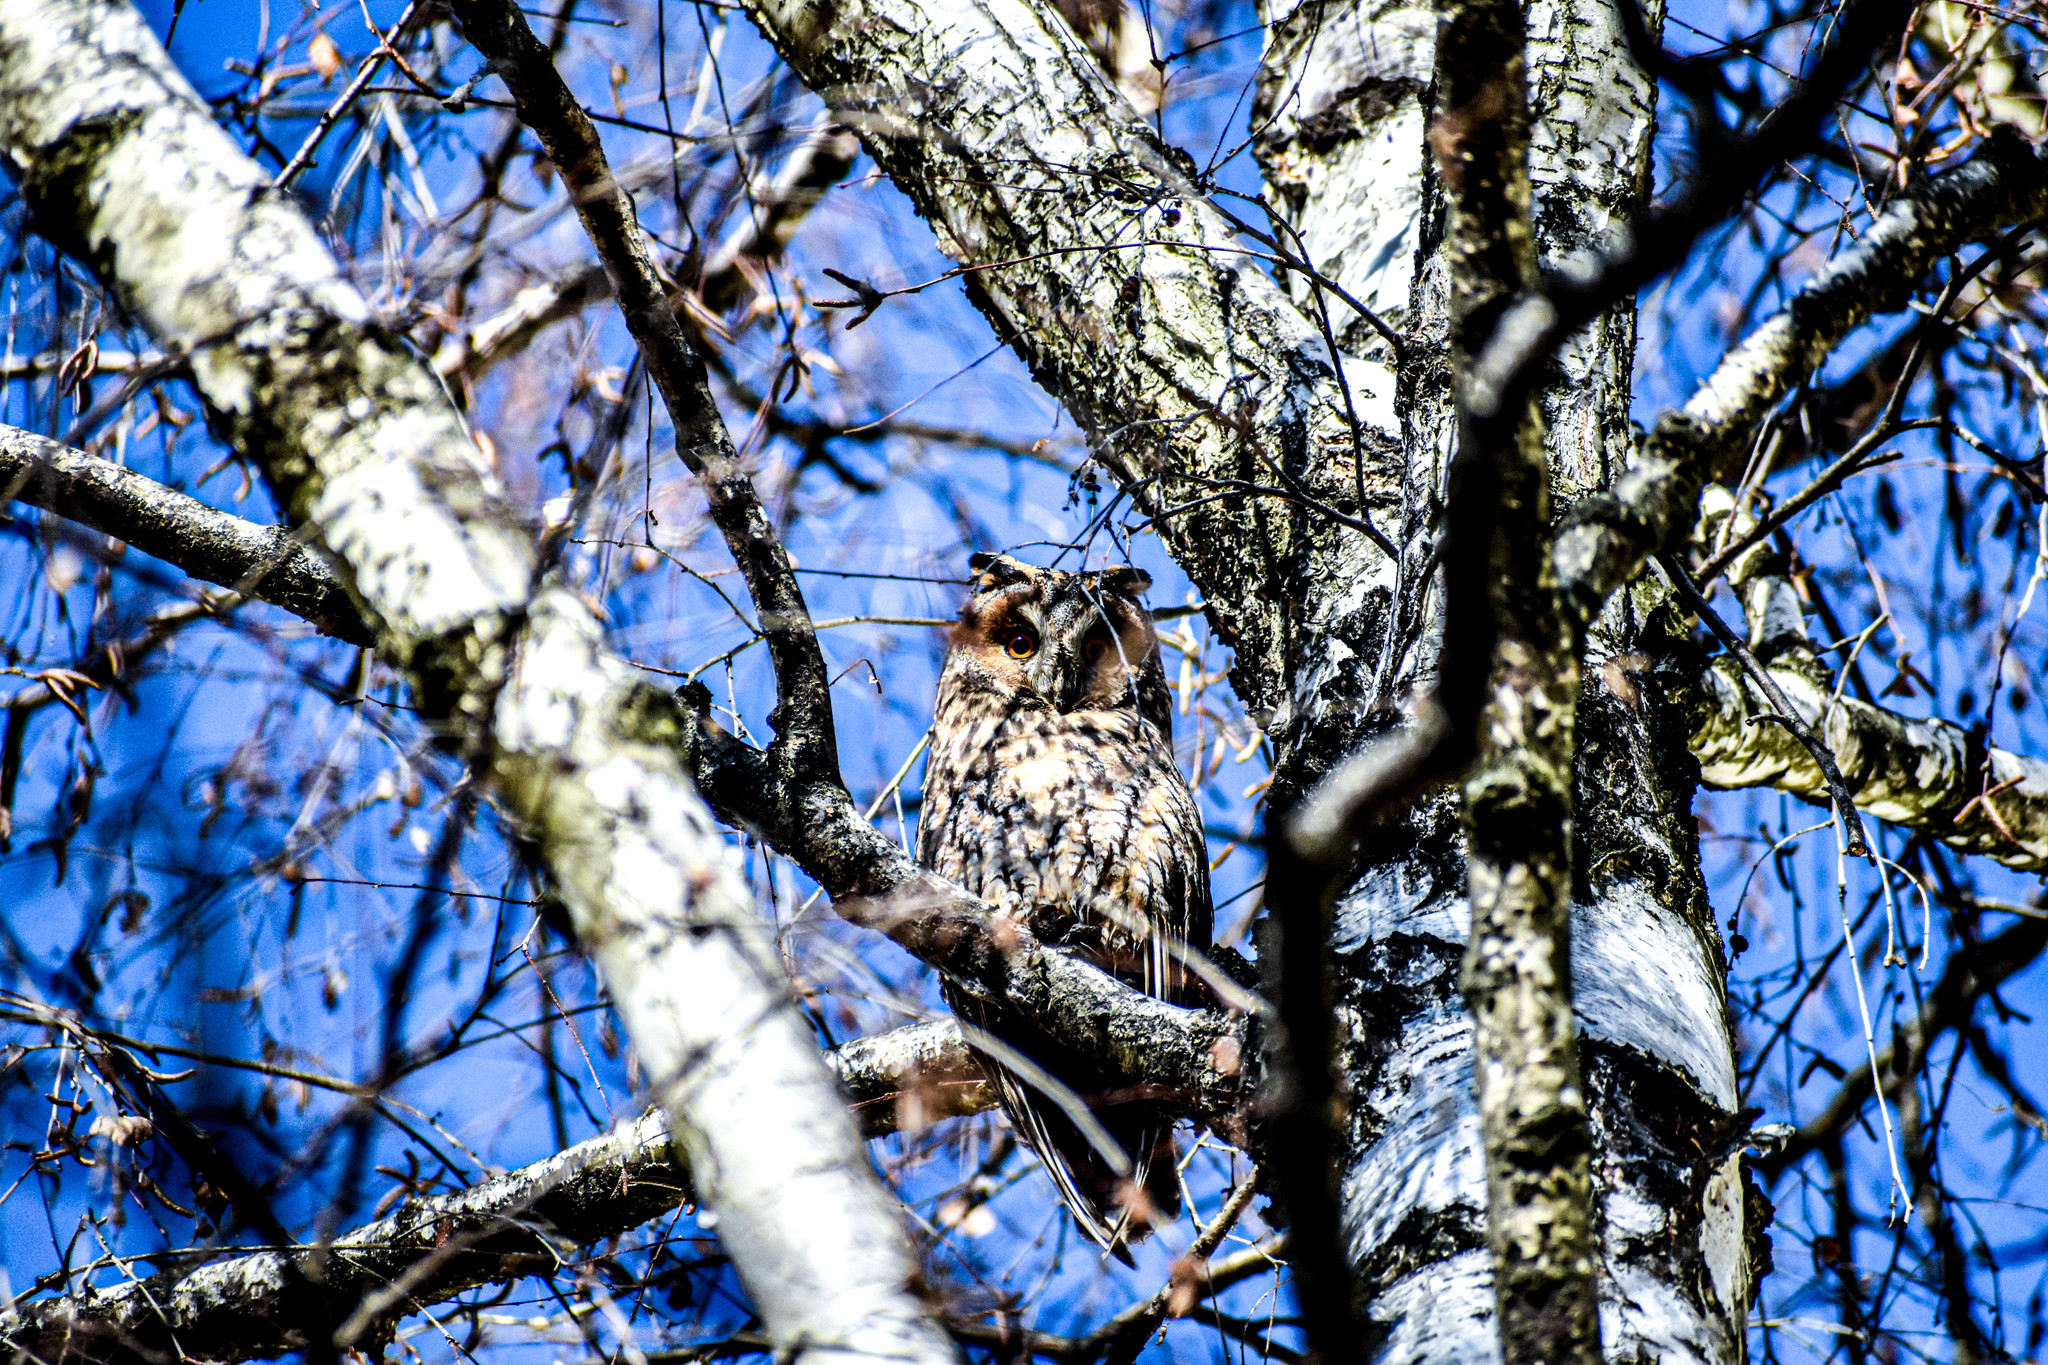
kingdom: Animalia
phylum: Chordata
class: Aves
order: Strigiformes
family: Strigidae
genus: Asio
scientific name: Asio otus
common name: Long-eared owl
